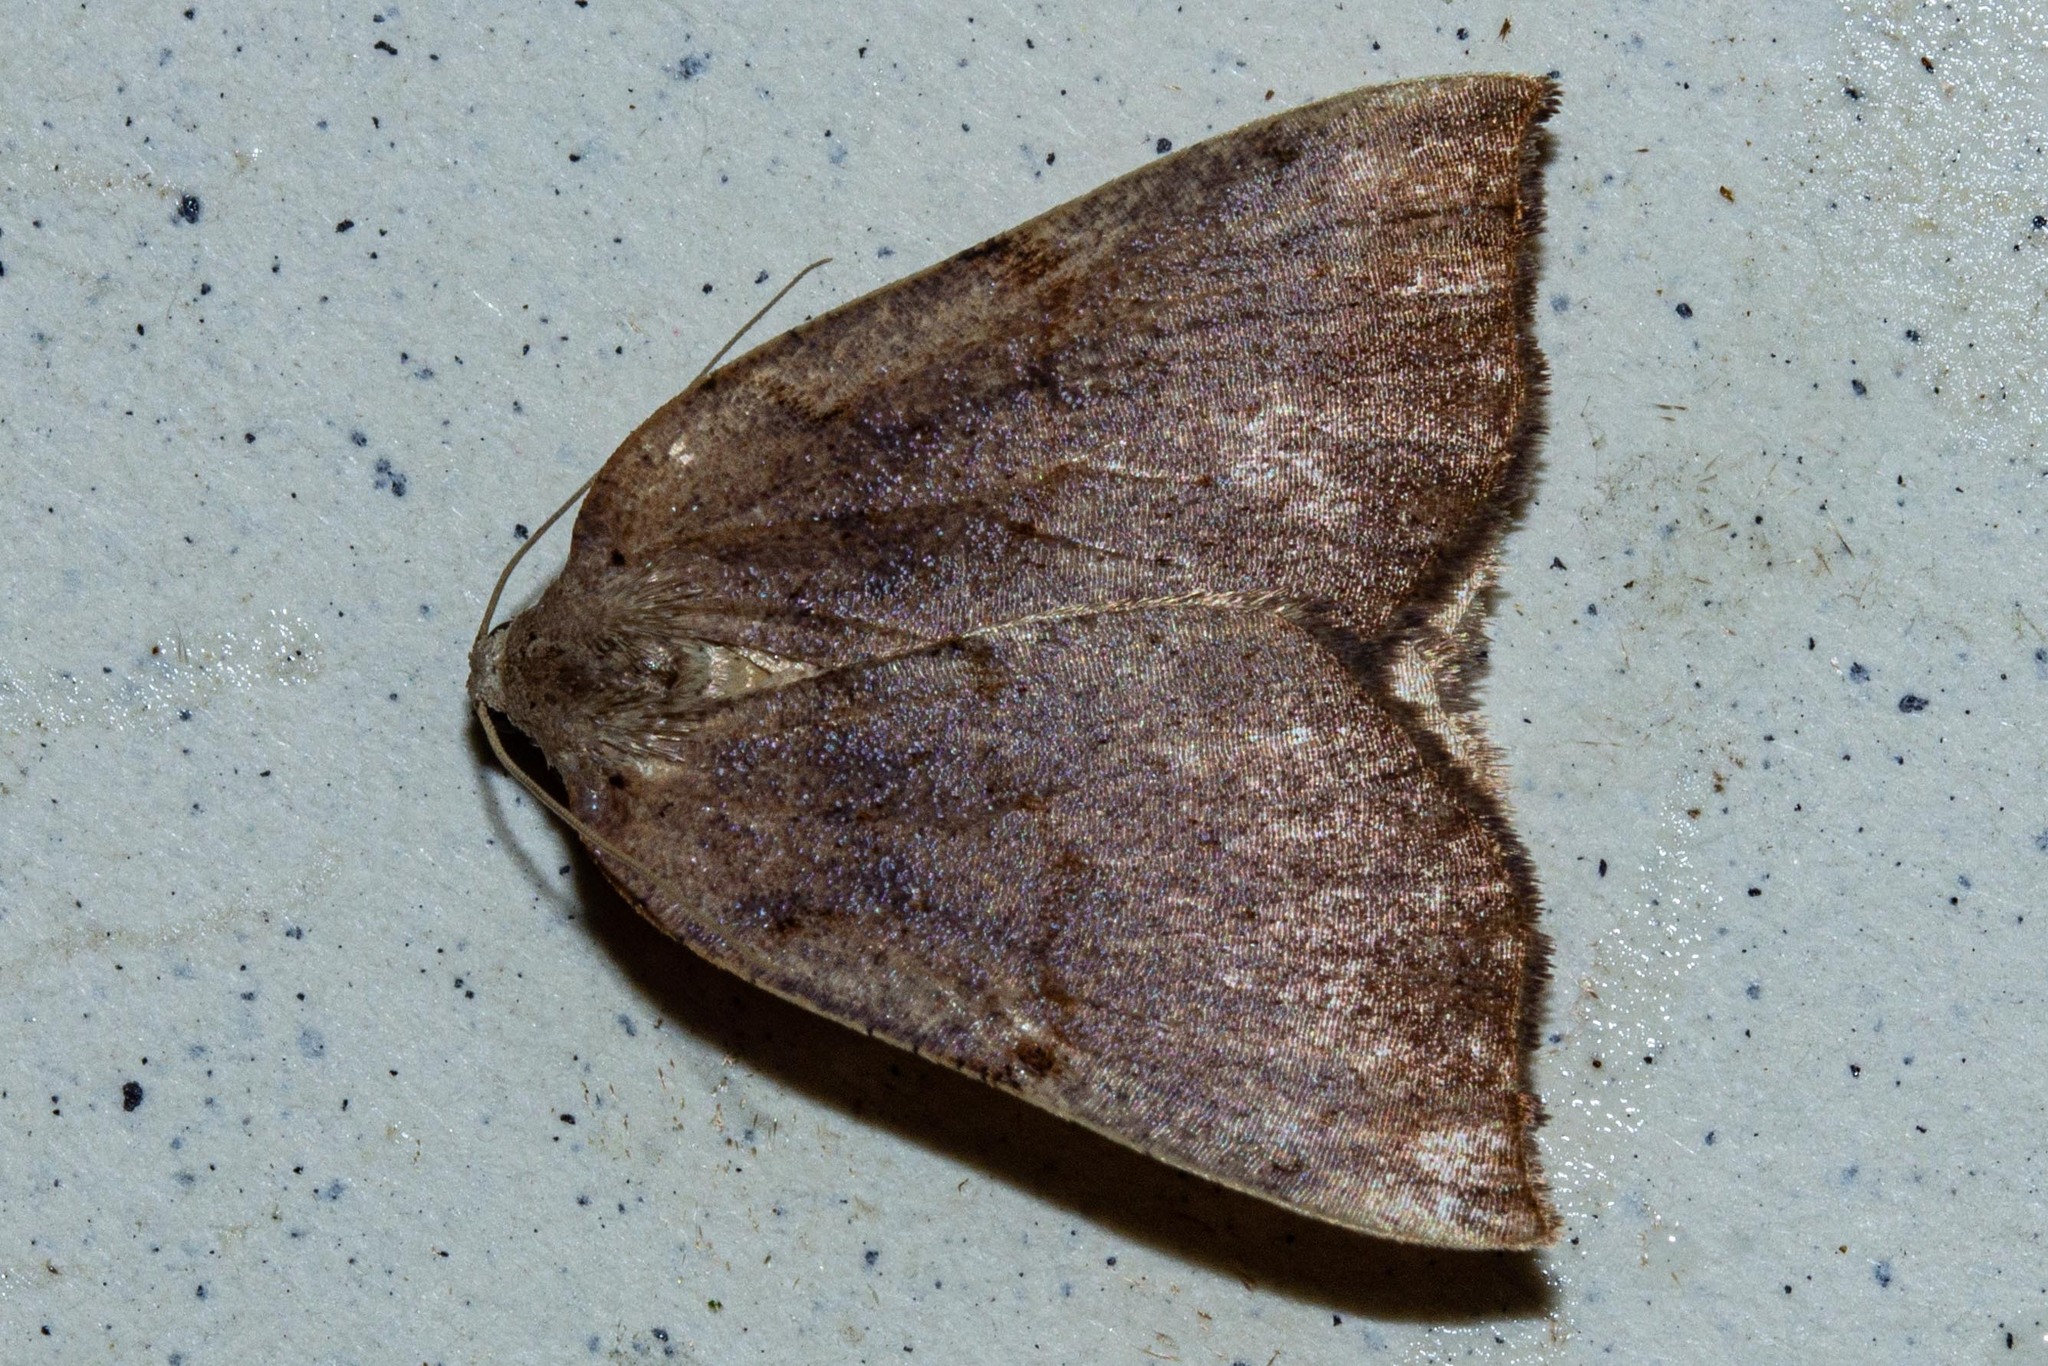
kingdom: Animalia
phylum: Arthropoda
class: Insecta
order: Lepidoptera
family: Geometridae
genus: Sestra
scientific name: Sestra humeraria
